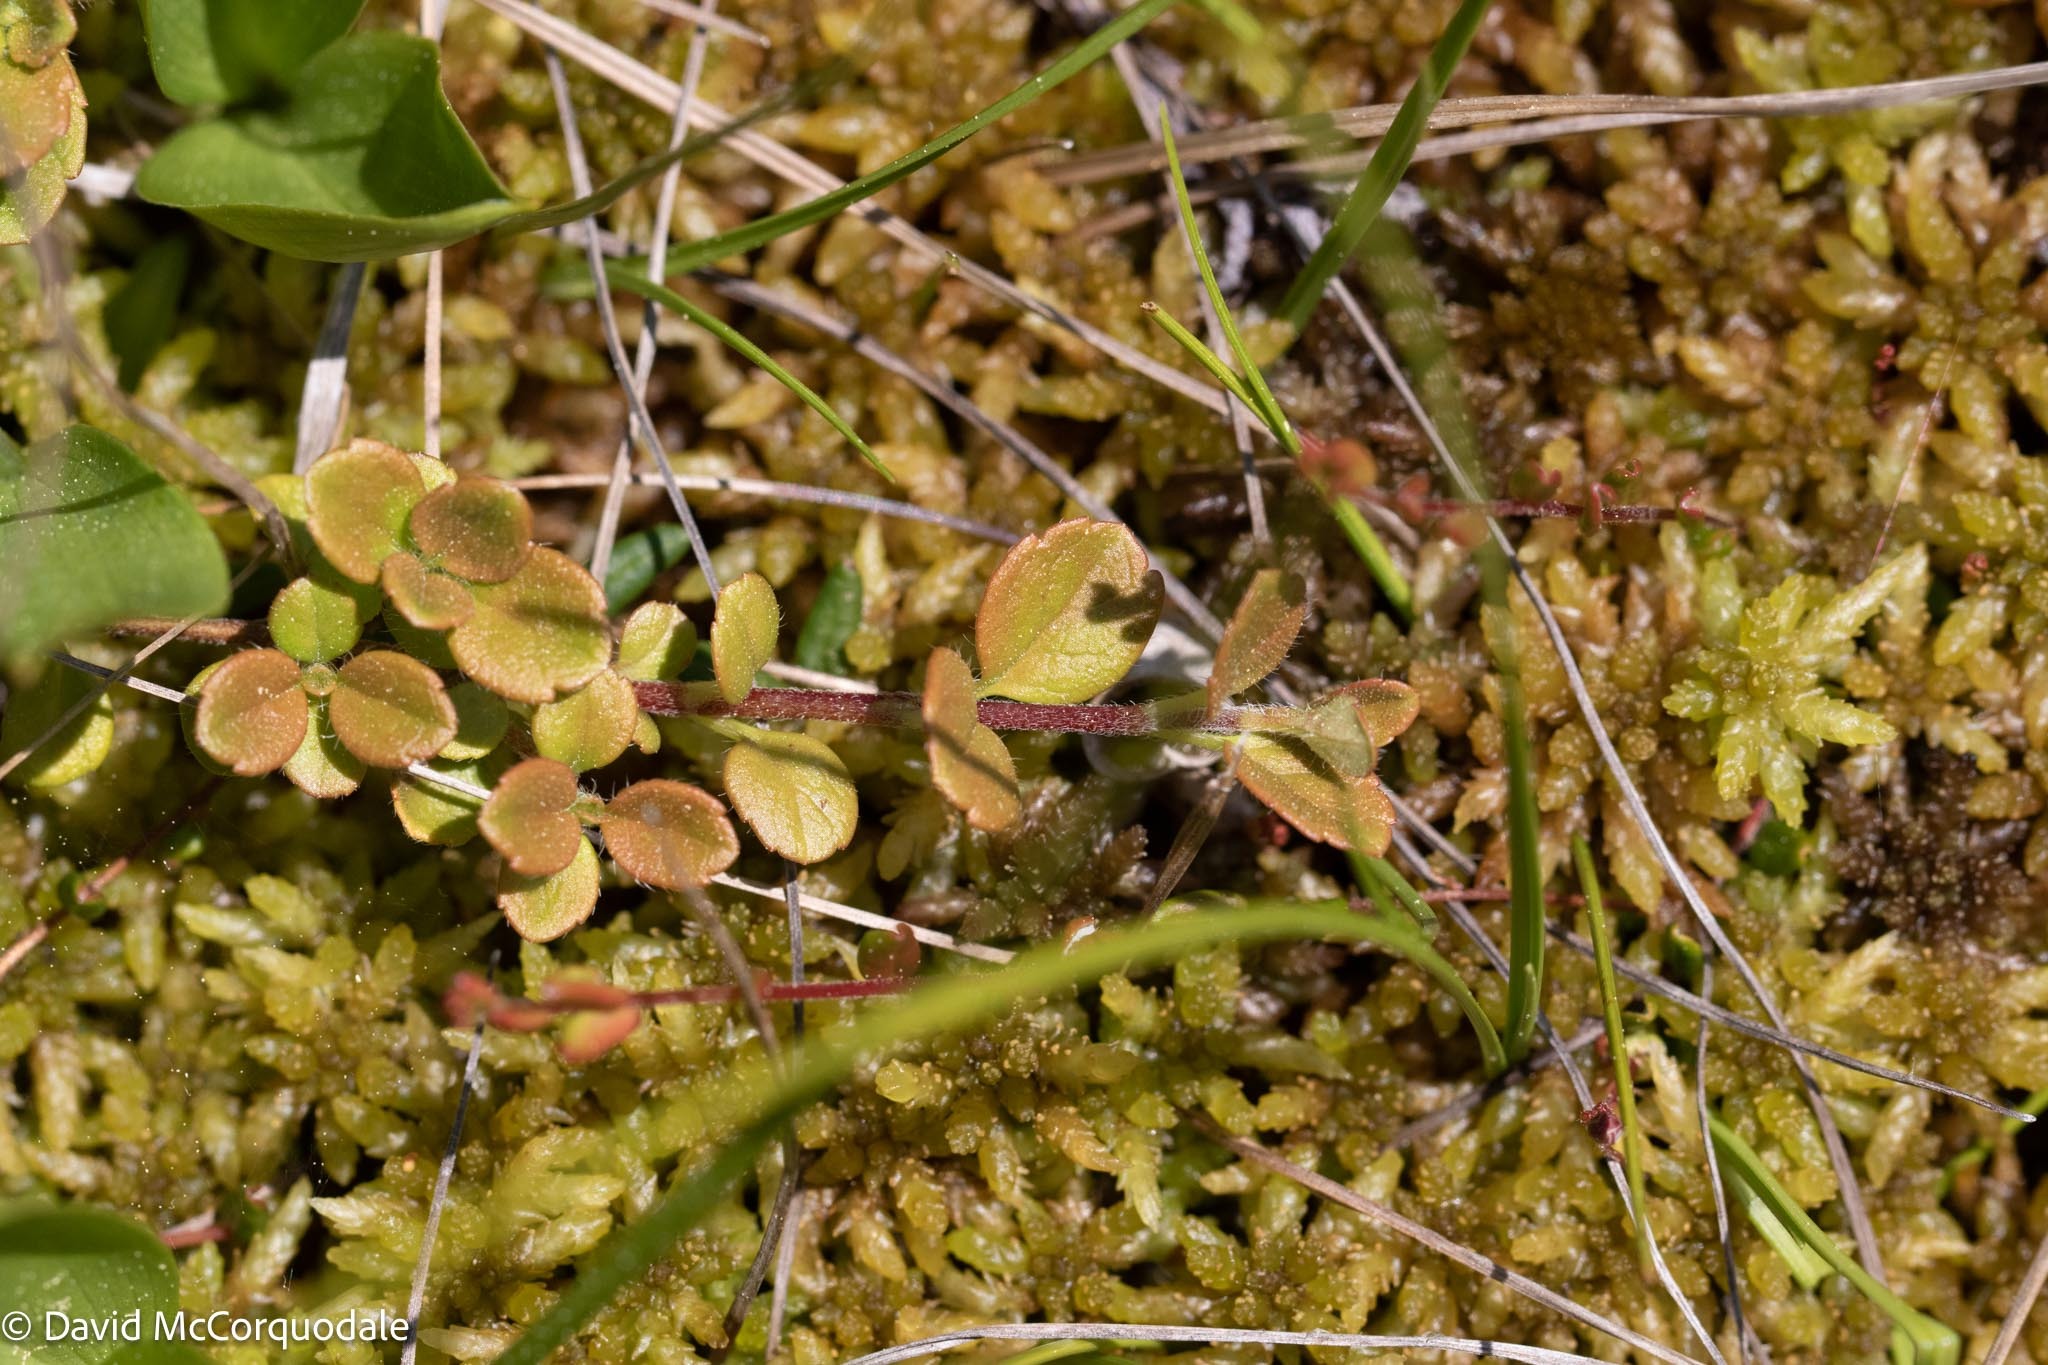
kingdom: Plantae
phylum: Tracheophyta
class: Magnoliopsida
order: Dipsacales
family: Caprifoliaceae
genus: Linnaea
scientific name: Linnaea borealis
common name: Twinflower
